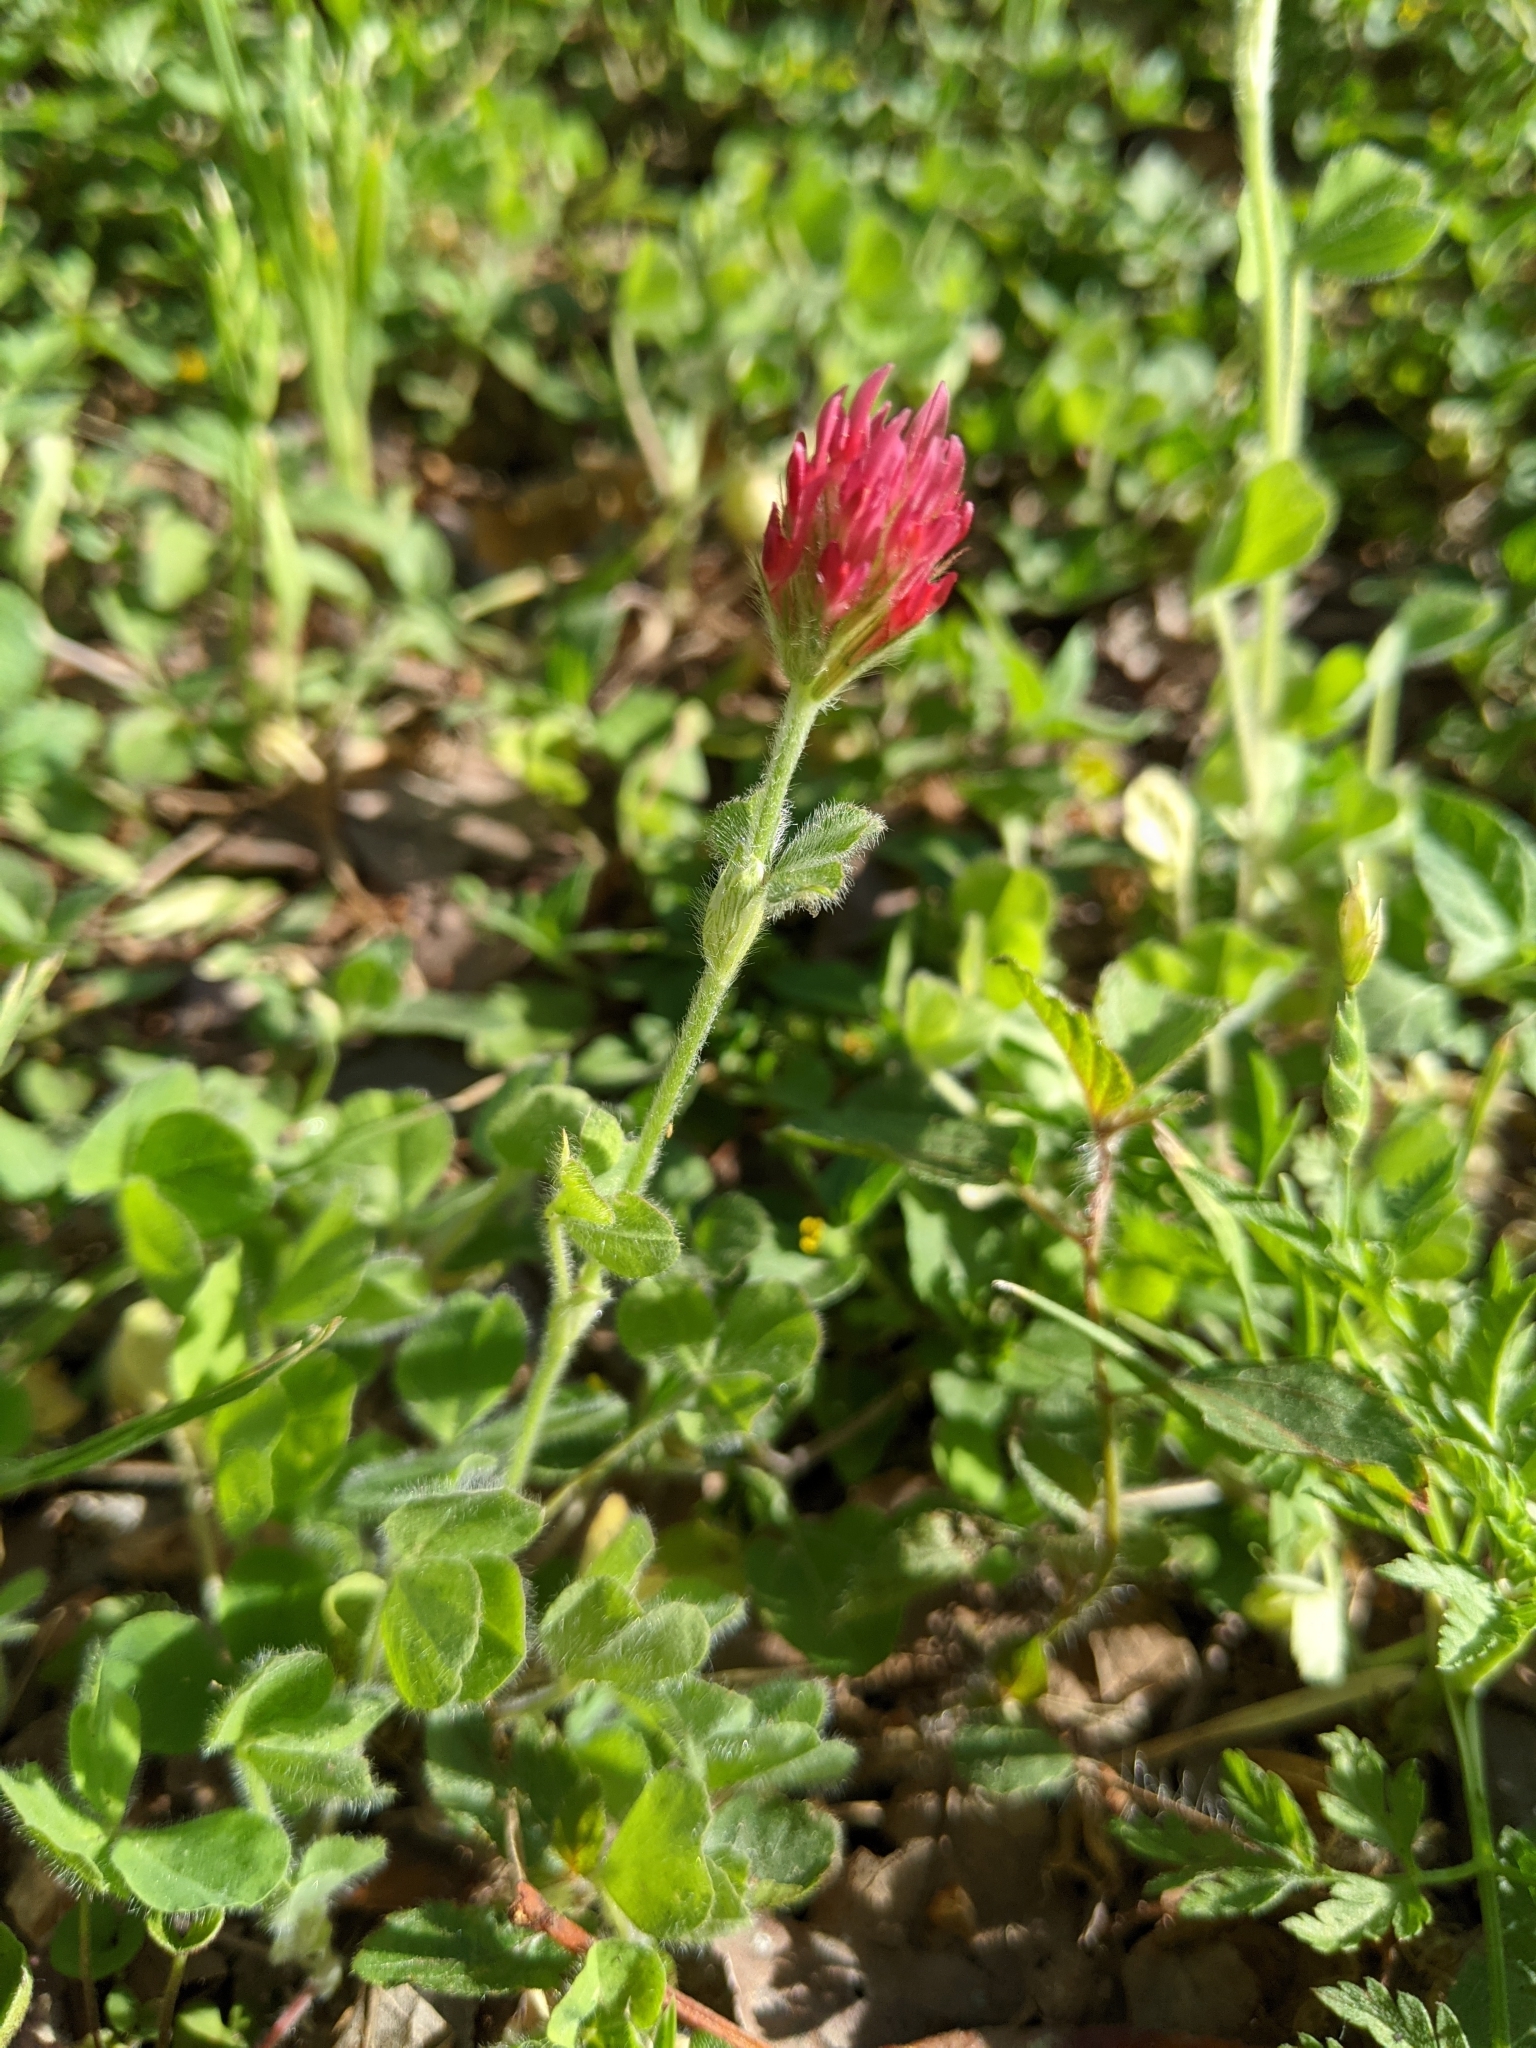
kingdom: Plantae
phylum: Tracheophyta
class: Magnoliopsida
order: Fabales
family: Fabaceae
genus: Trifolium
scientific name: Trifolium incarnatum
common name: Crimson clover
